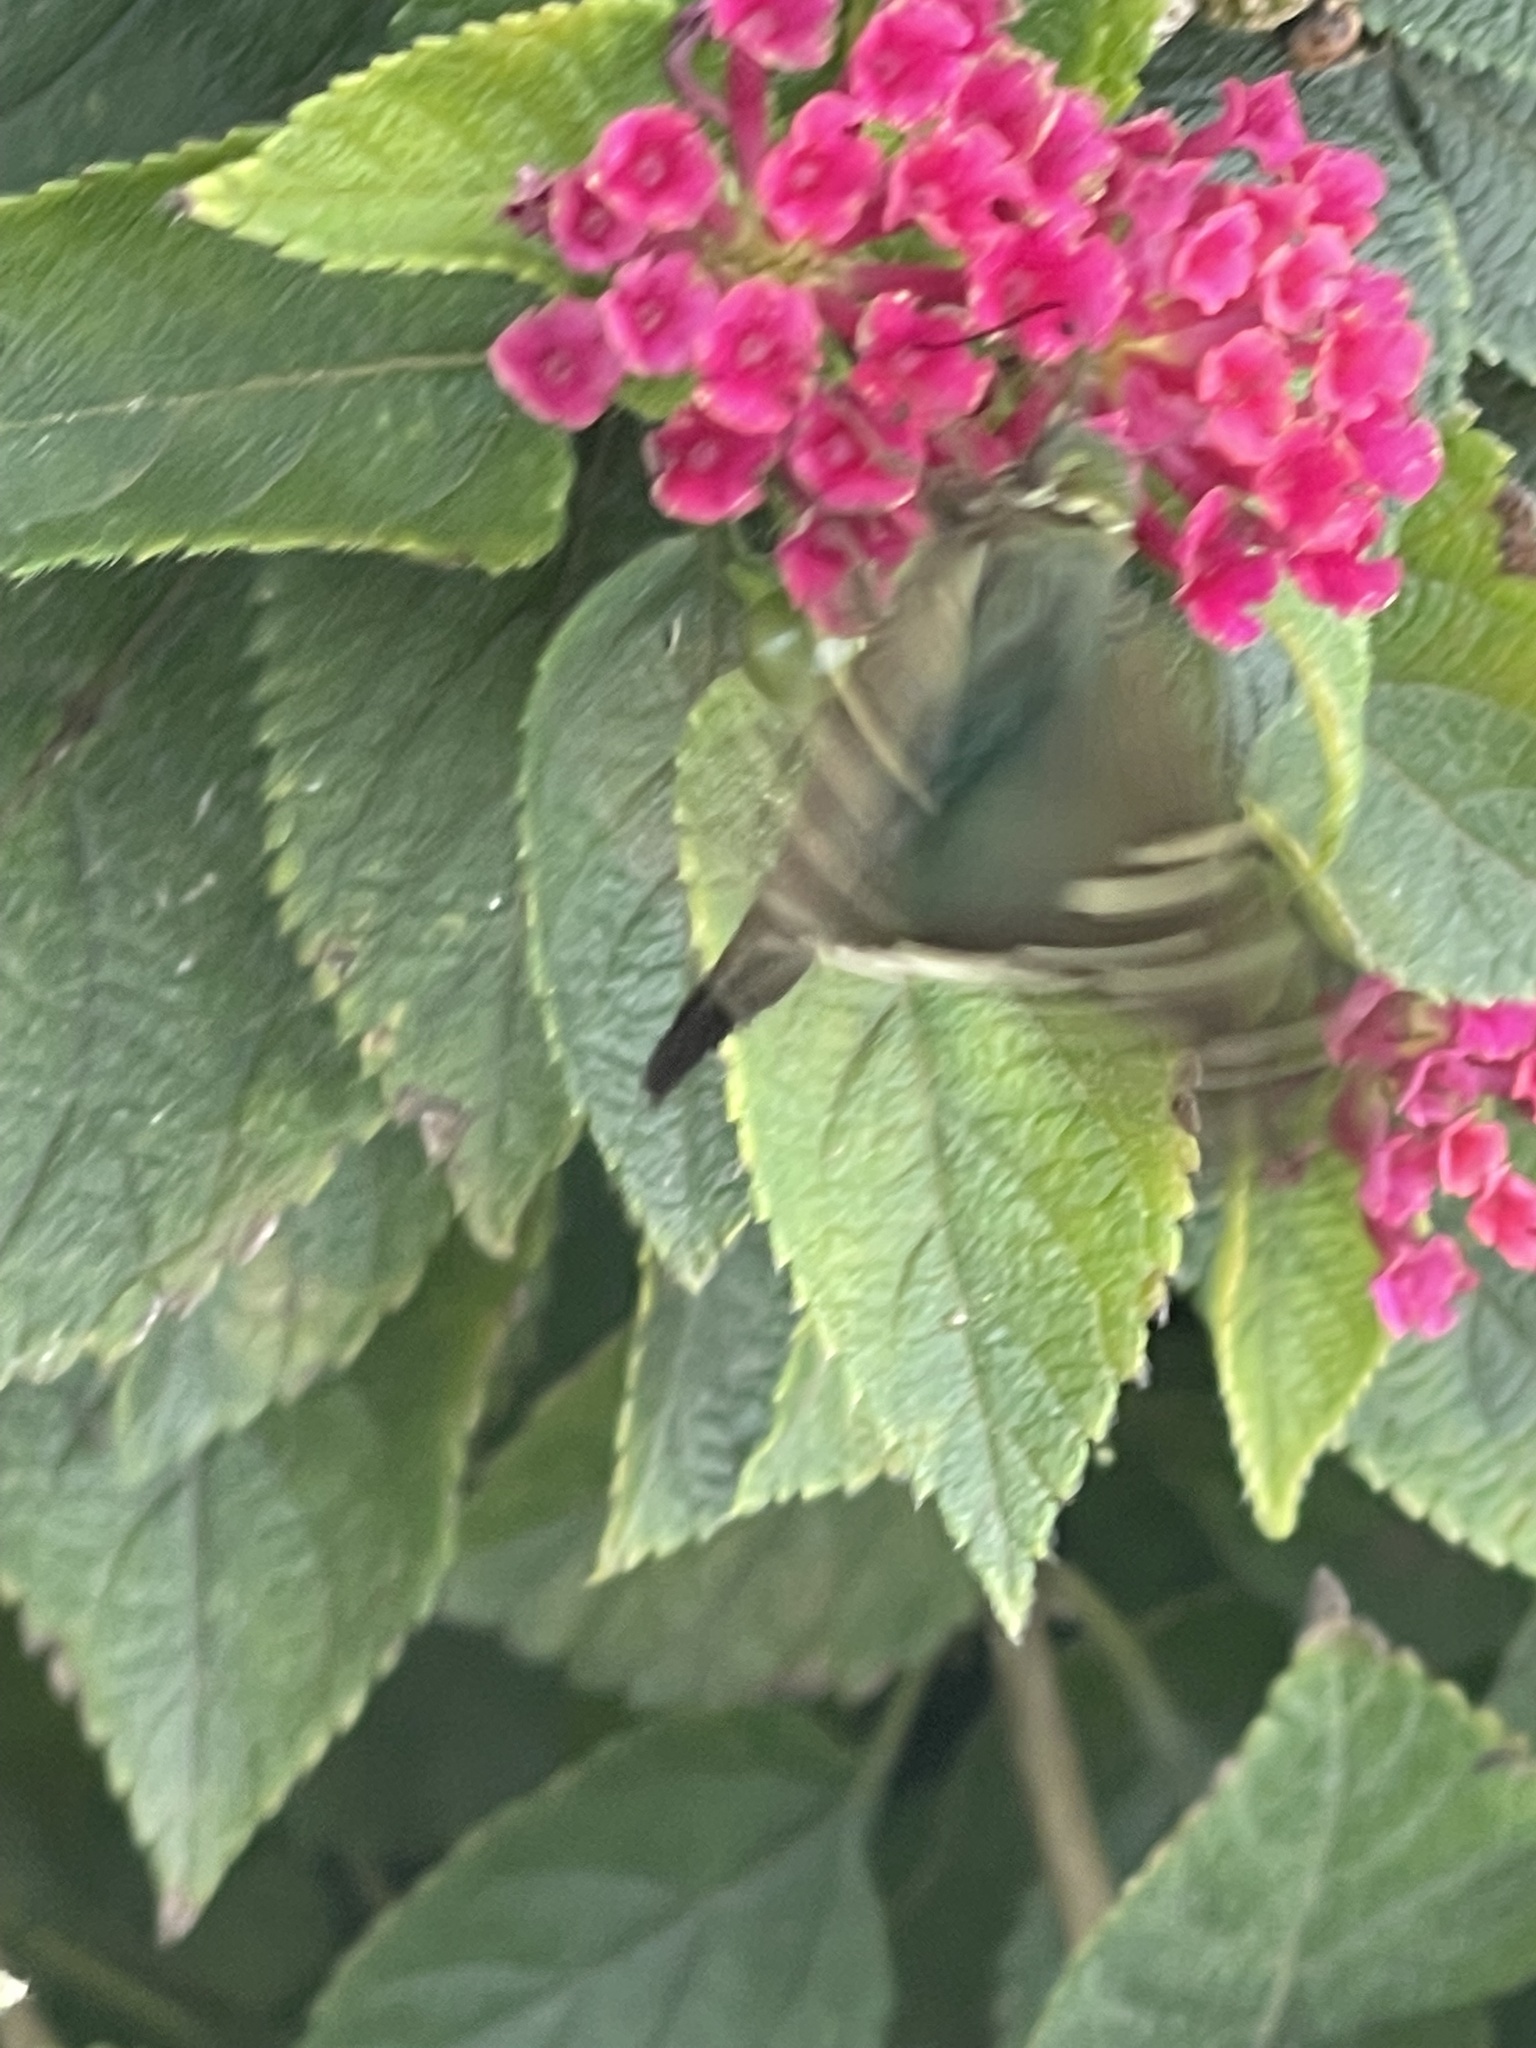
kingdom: Animalia
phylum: Arthropoda
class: Insecta
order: Lepidoptera
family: Hesperiidae
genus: Urbanus
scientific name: Urbanus proteus
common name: Long-tailed skipper
